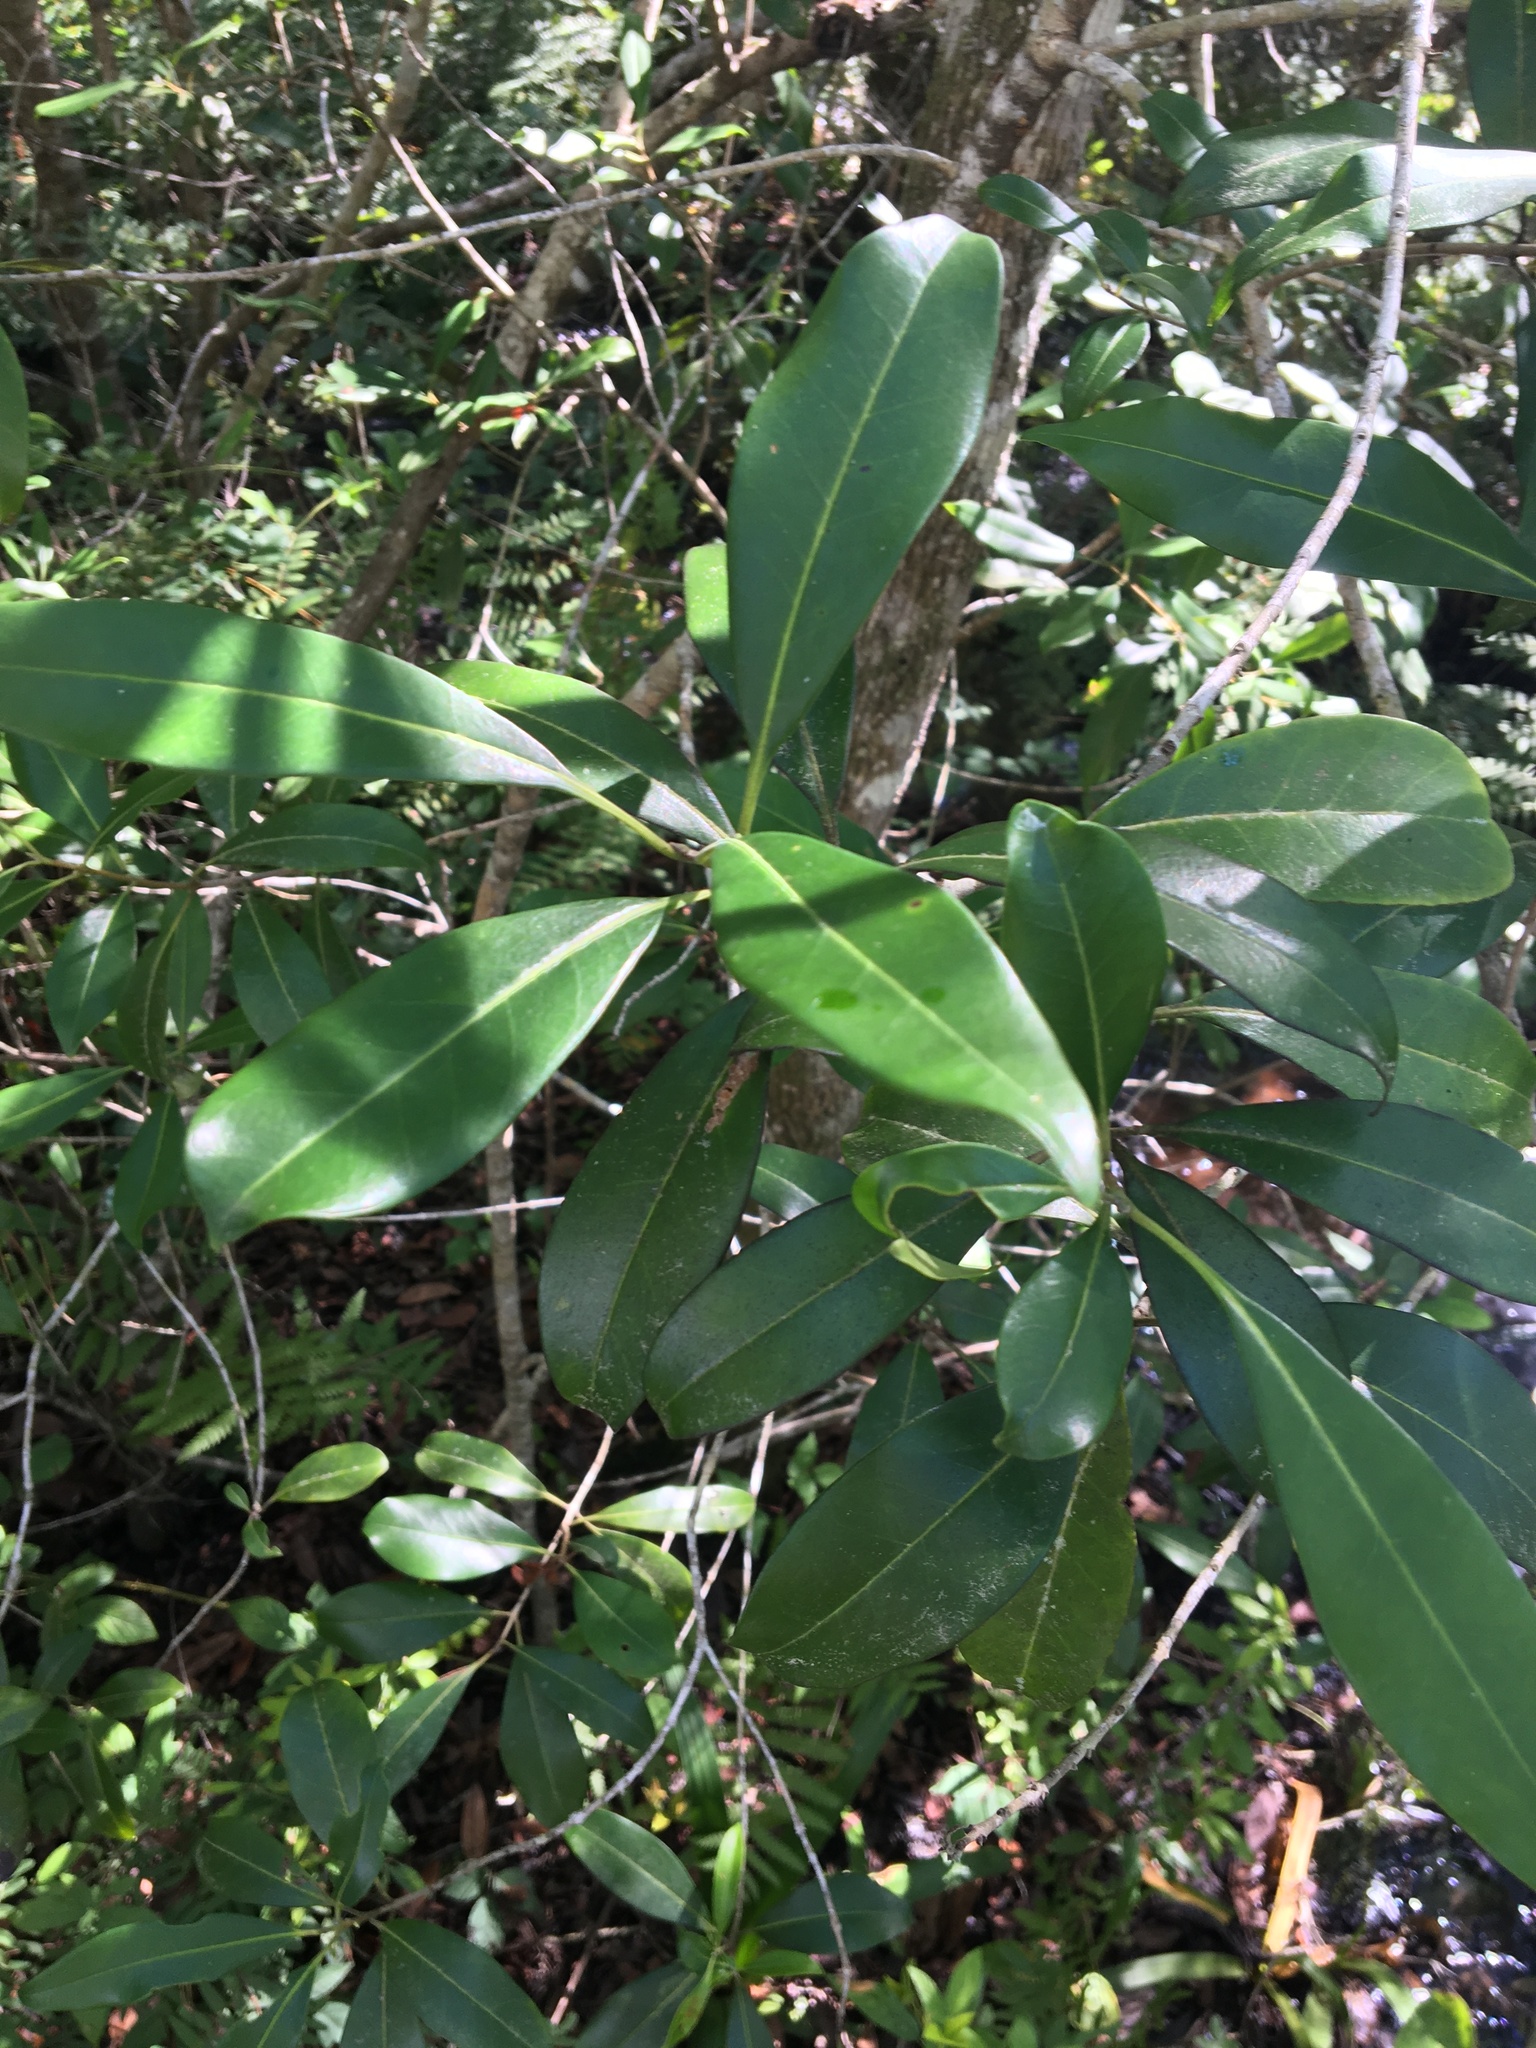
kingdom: Plantae
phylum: Tracheophyta
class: Magnoliopsida
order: Lamiales
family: Oleaceae
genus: Cartrema
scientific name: Cartrema americana
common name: Devilwood
